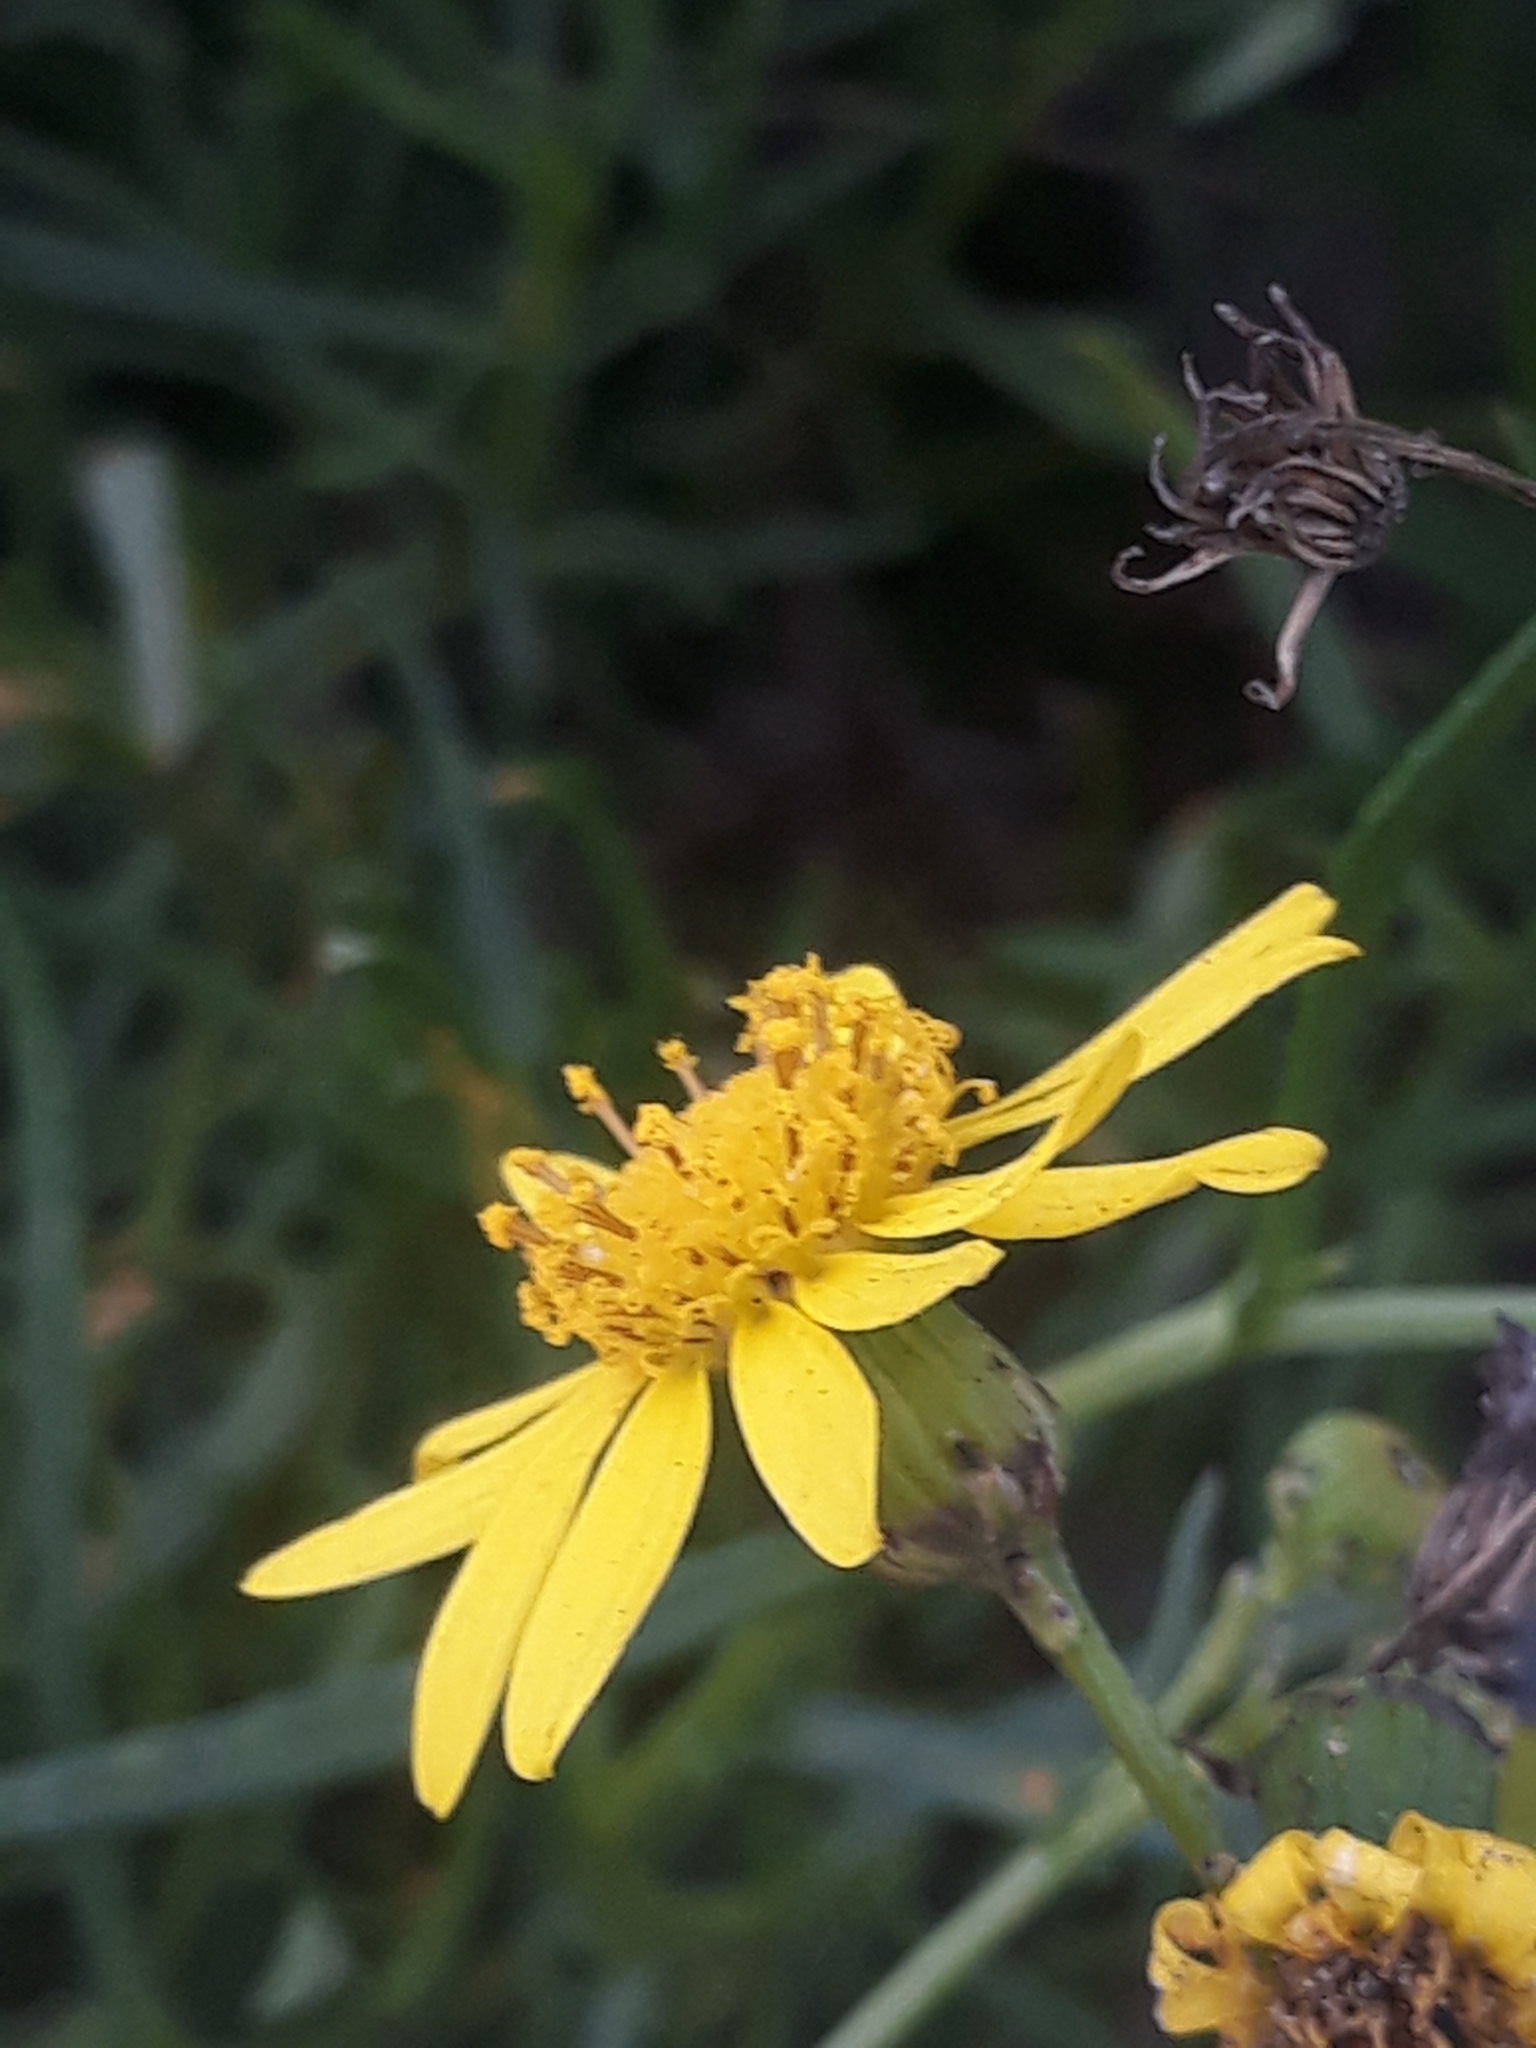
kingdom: Plantae
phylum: Tracheophyta
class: Magnoliopsida
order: Asterales
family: Asteraceae
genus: Senecio
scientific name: Senecio inaequidens
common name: Narrow-leaved ragwort
